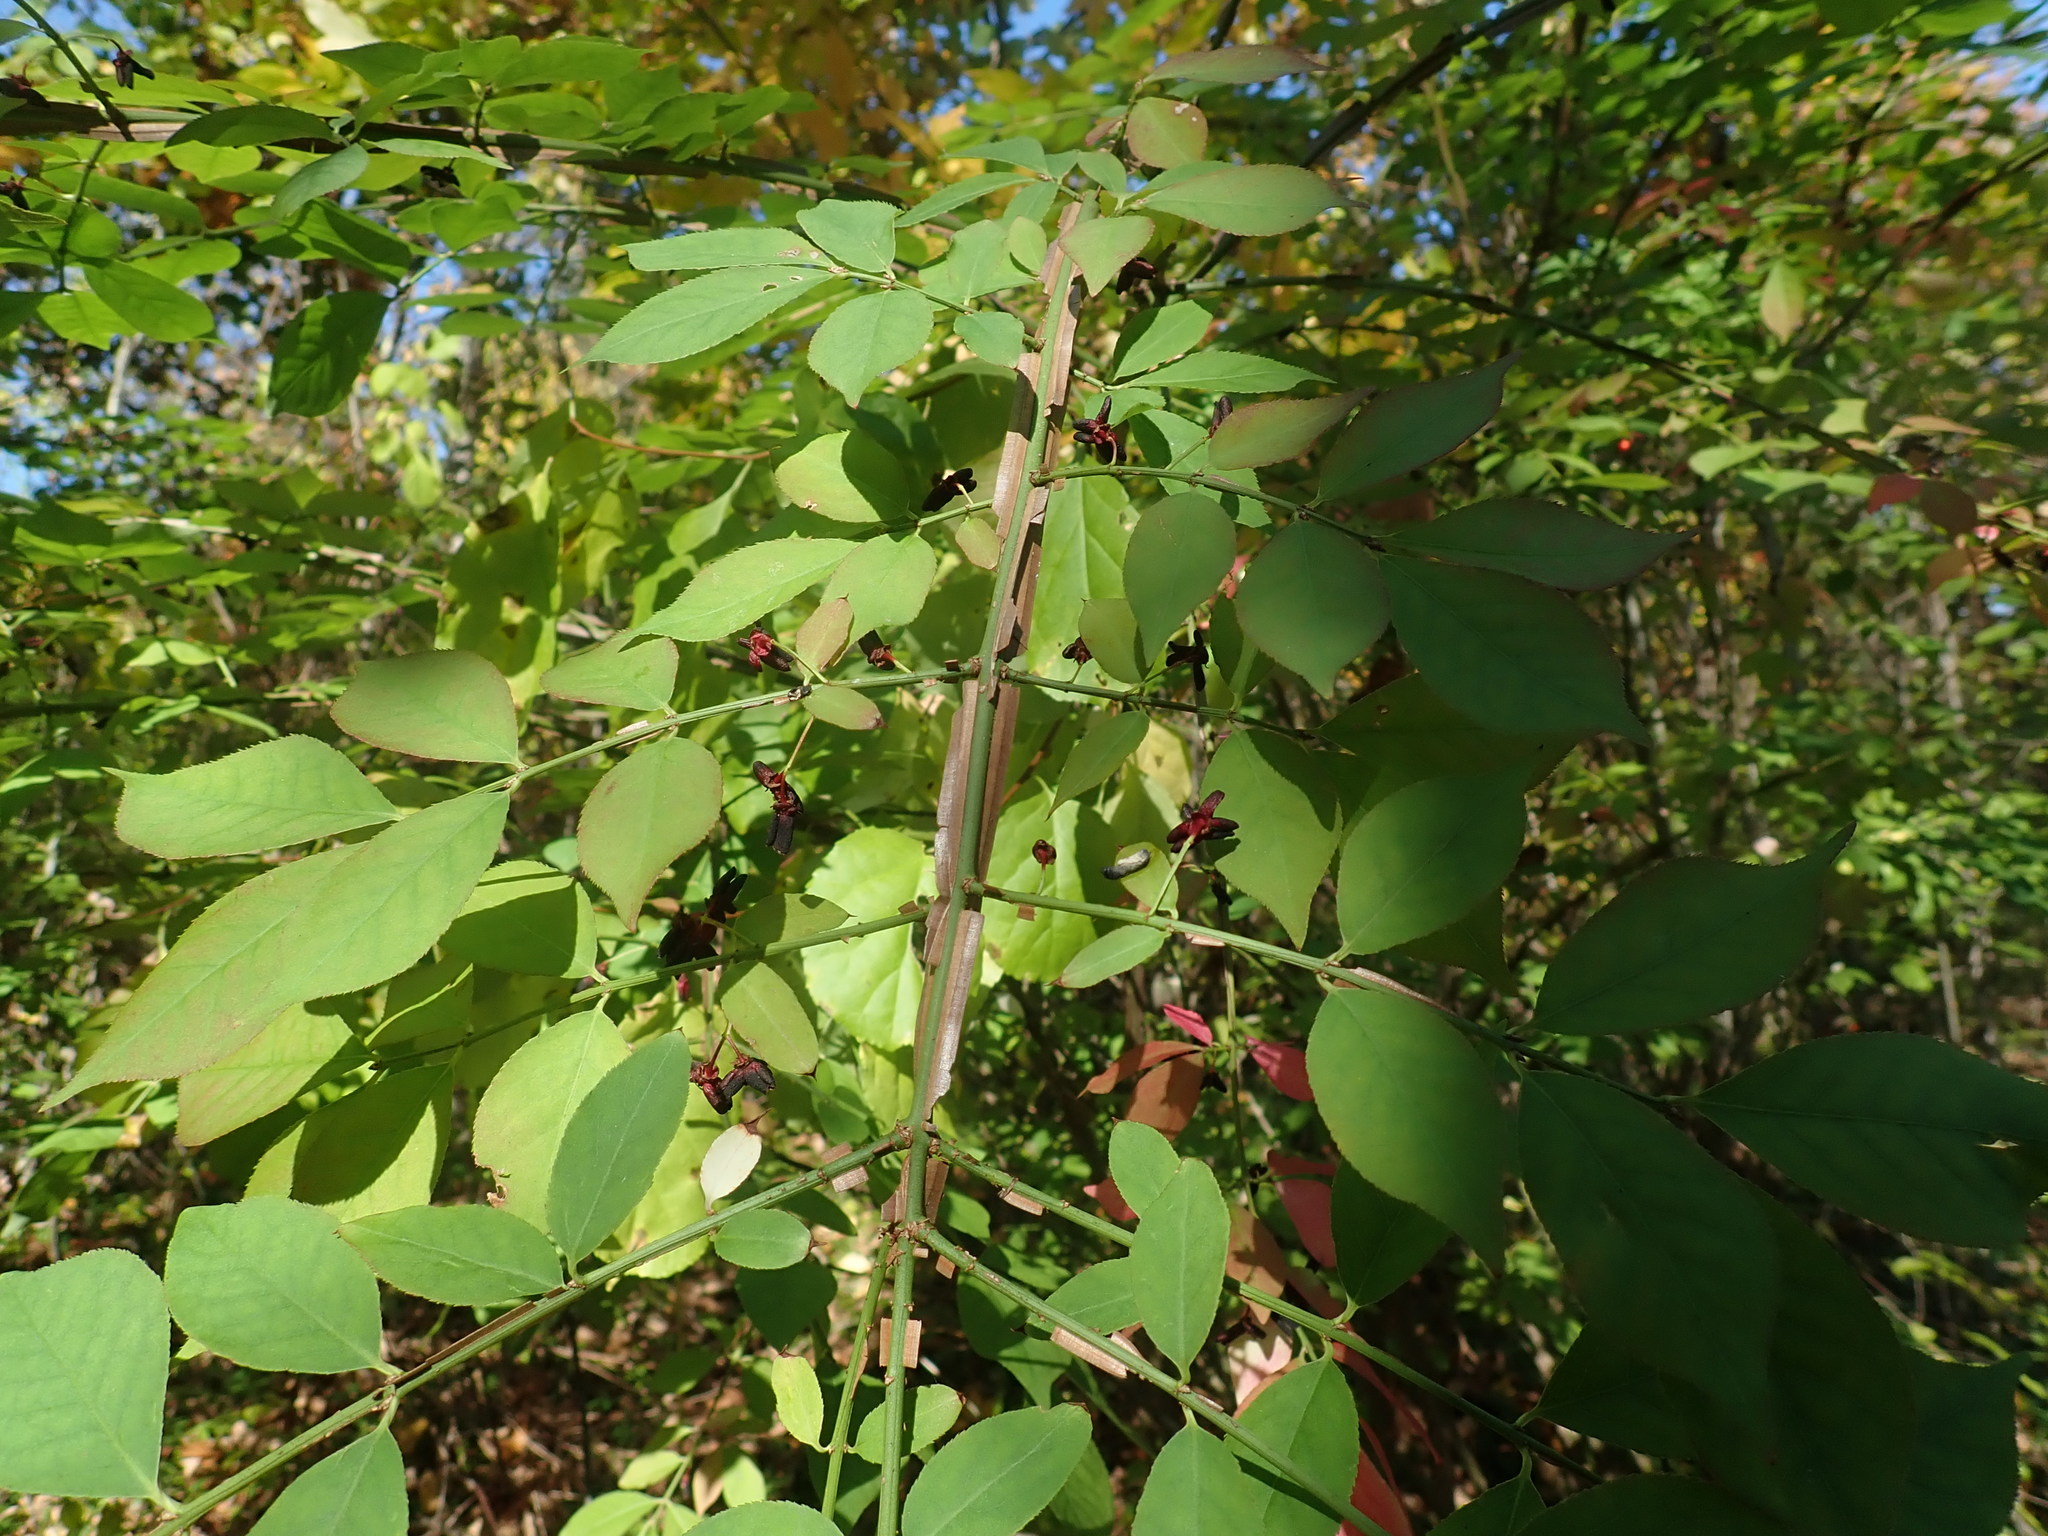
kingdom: Plantae
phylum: Tracheophyta
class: Magnoliopsida
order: Celastrales
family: Celastraceae
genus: Euonymus
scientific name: Euonymus alatus
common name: Winged euonymus
